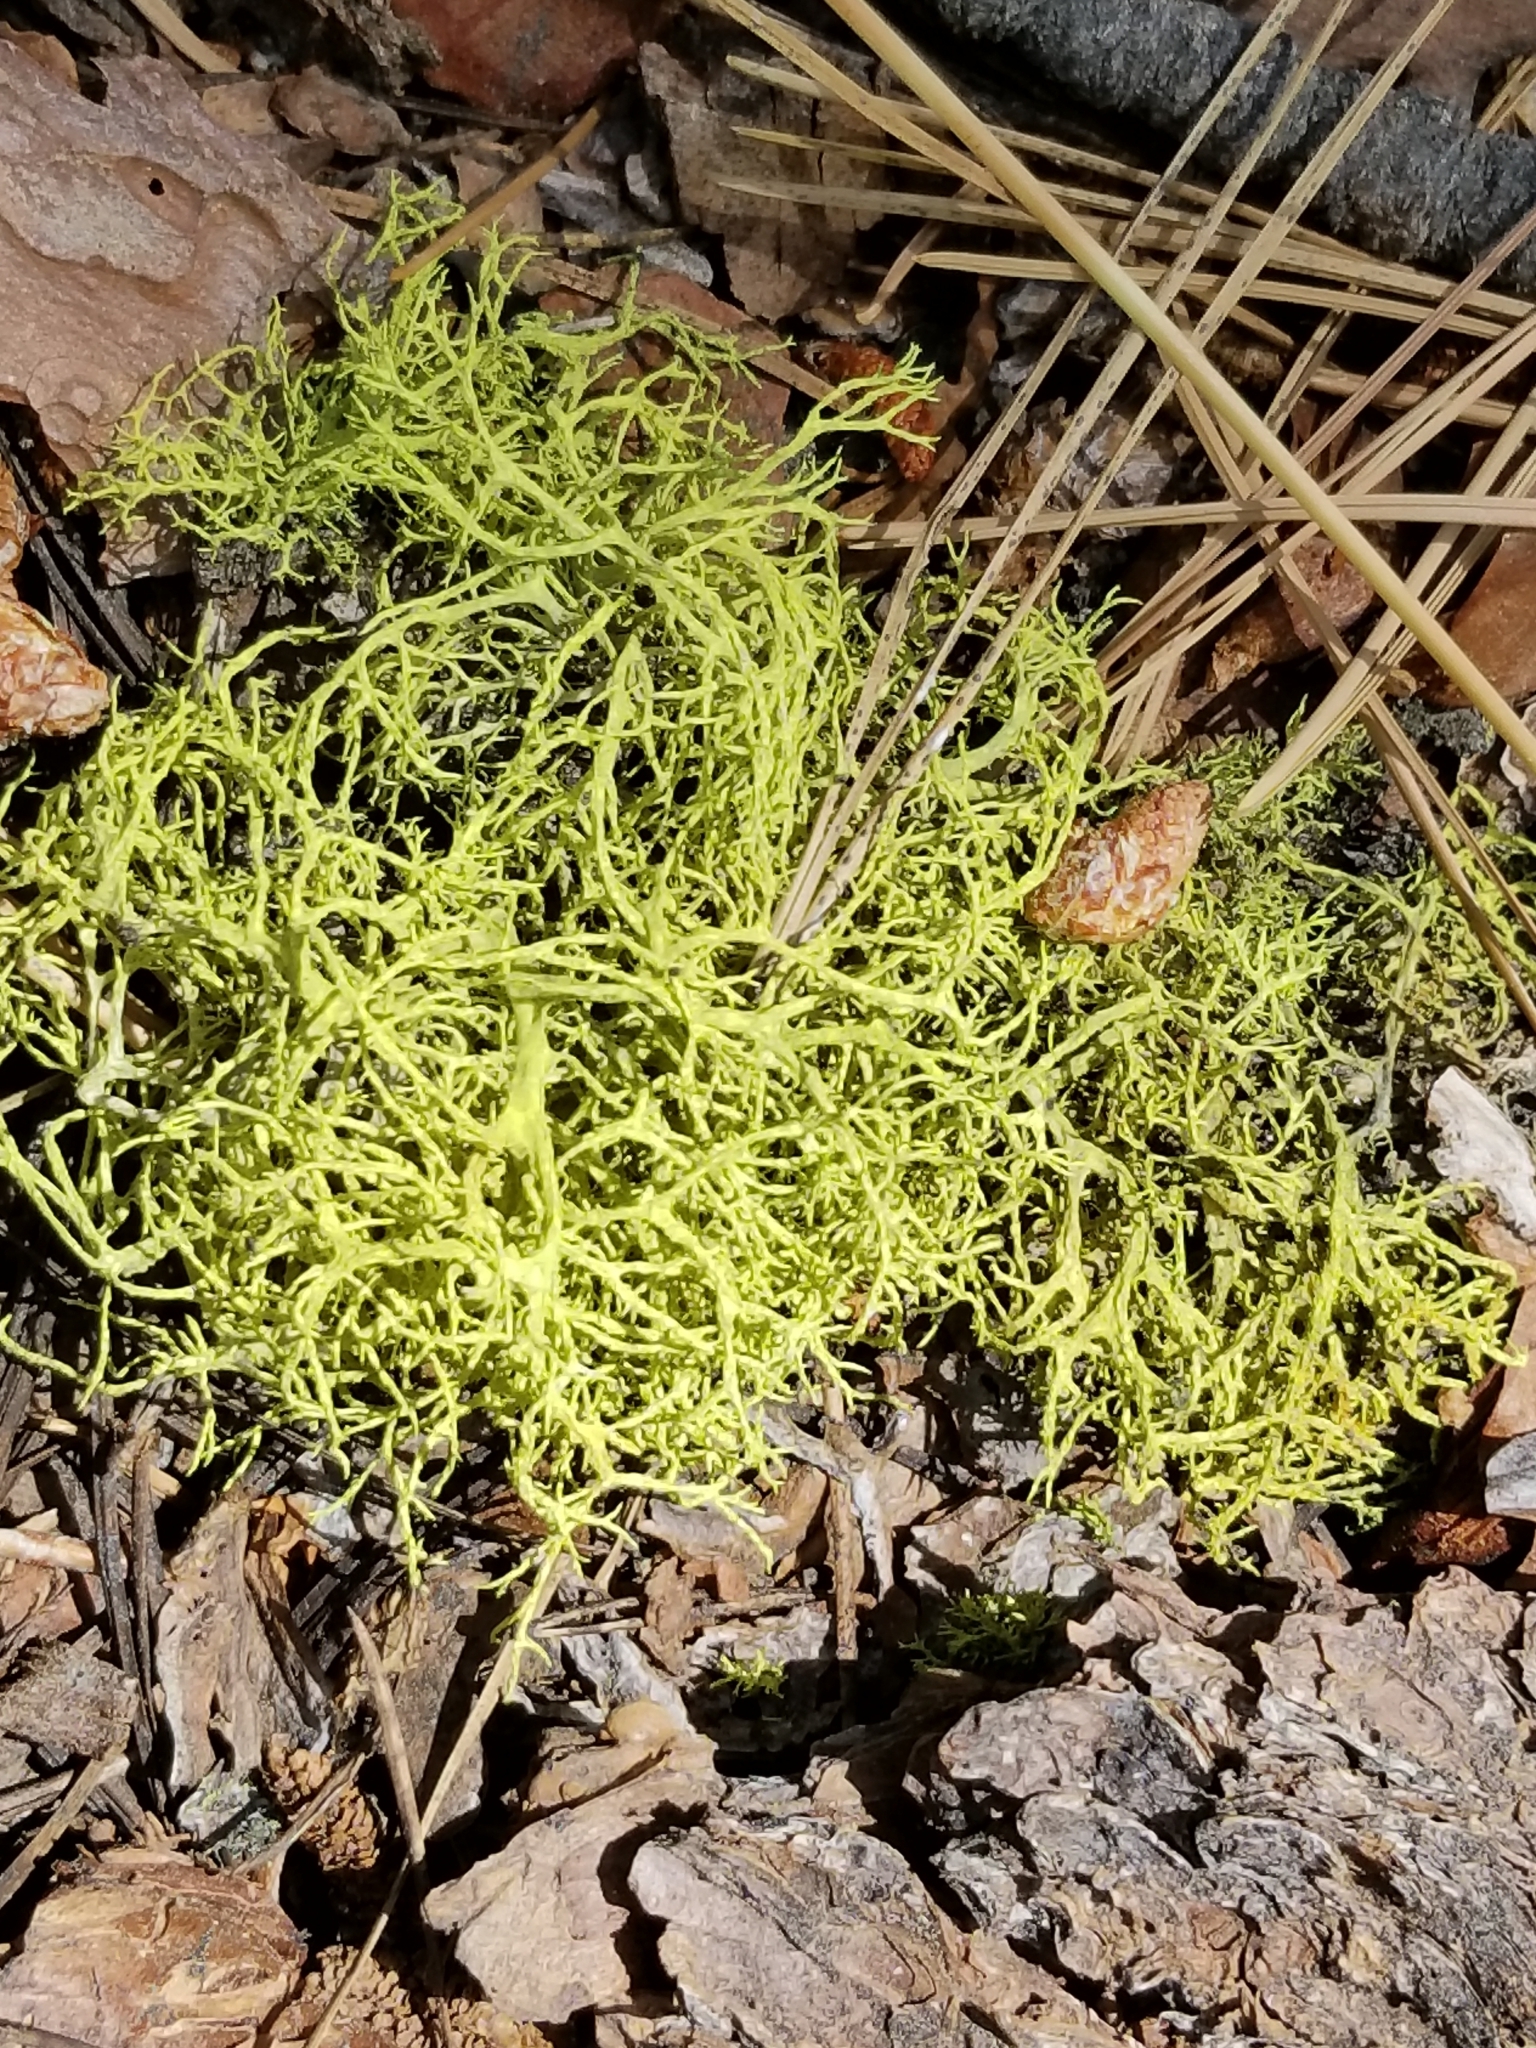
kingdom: Fungi
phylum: Ascomycota
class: Lecanoromycetes
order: Lecanorales
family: Parmeliaceae
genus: Letharia
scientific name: Letharia vulpina
